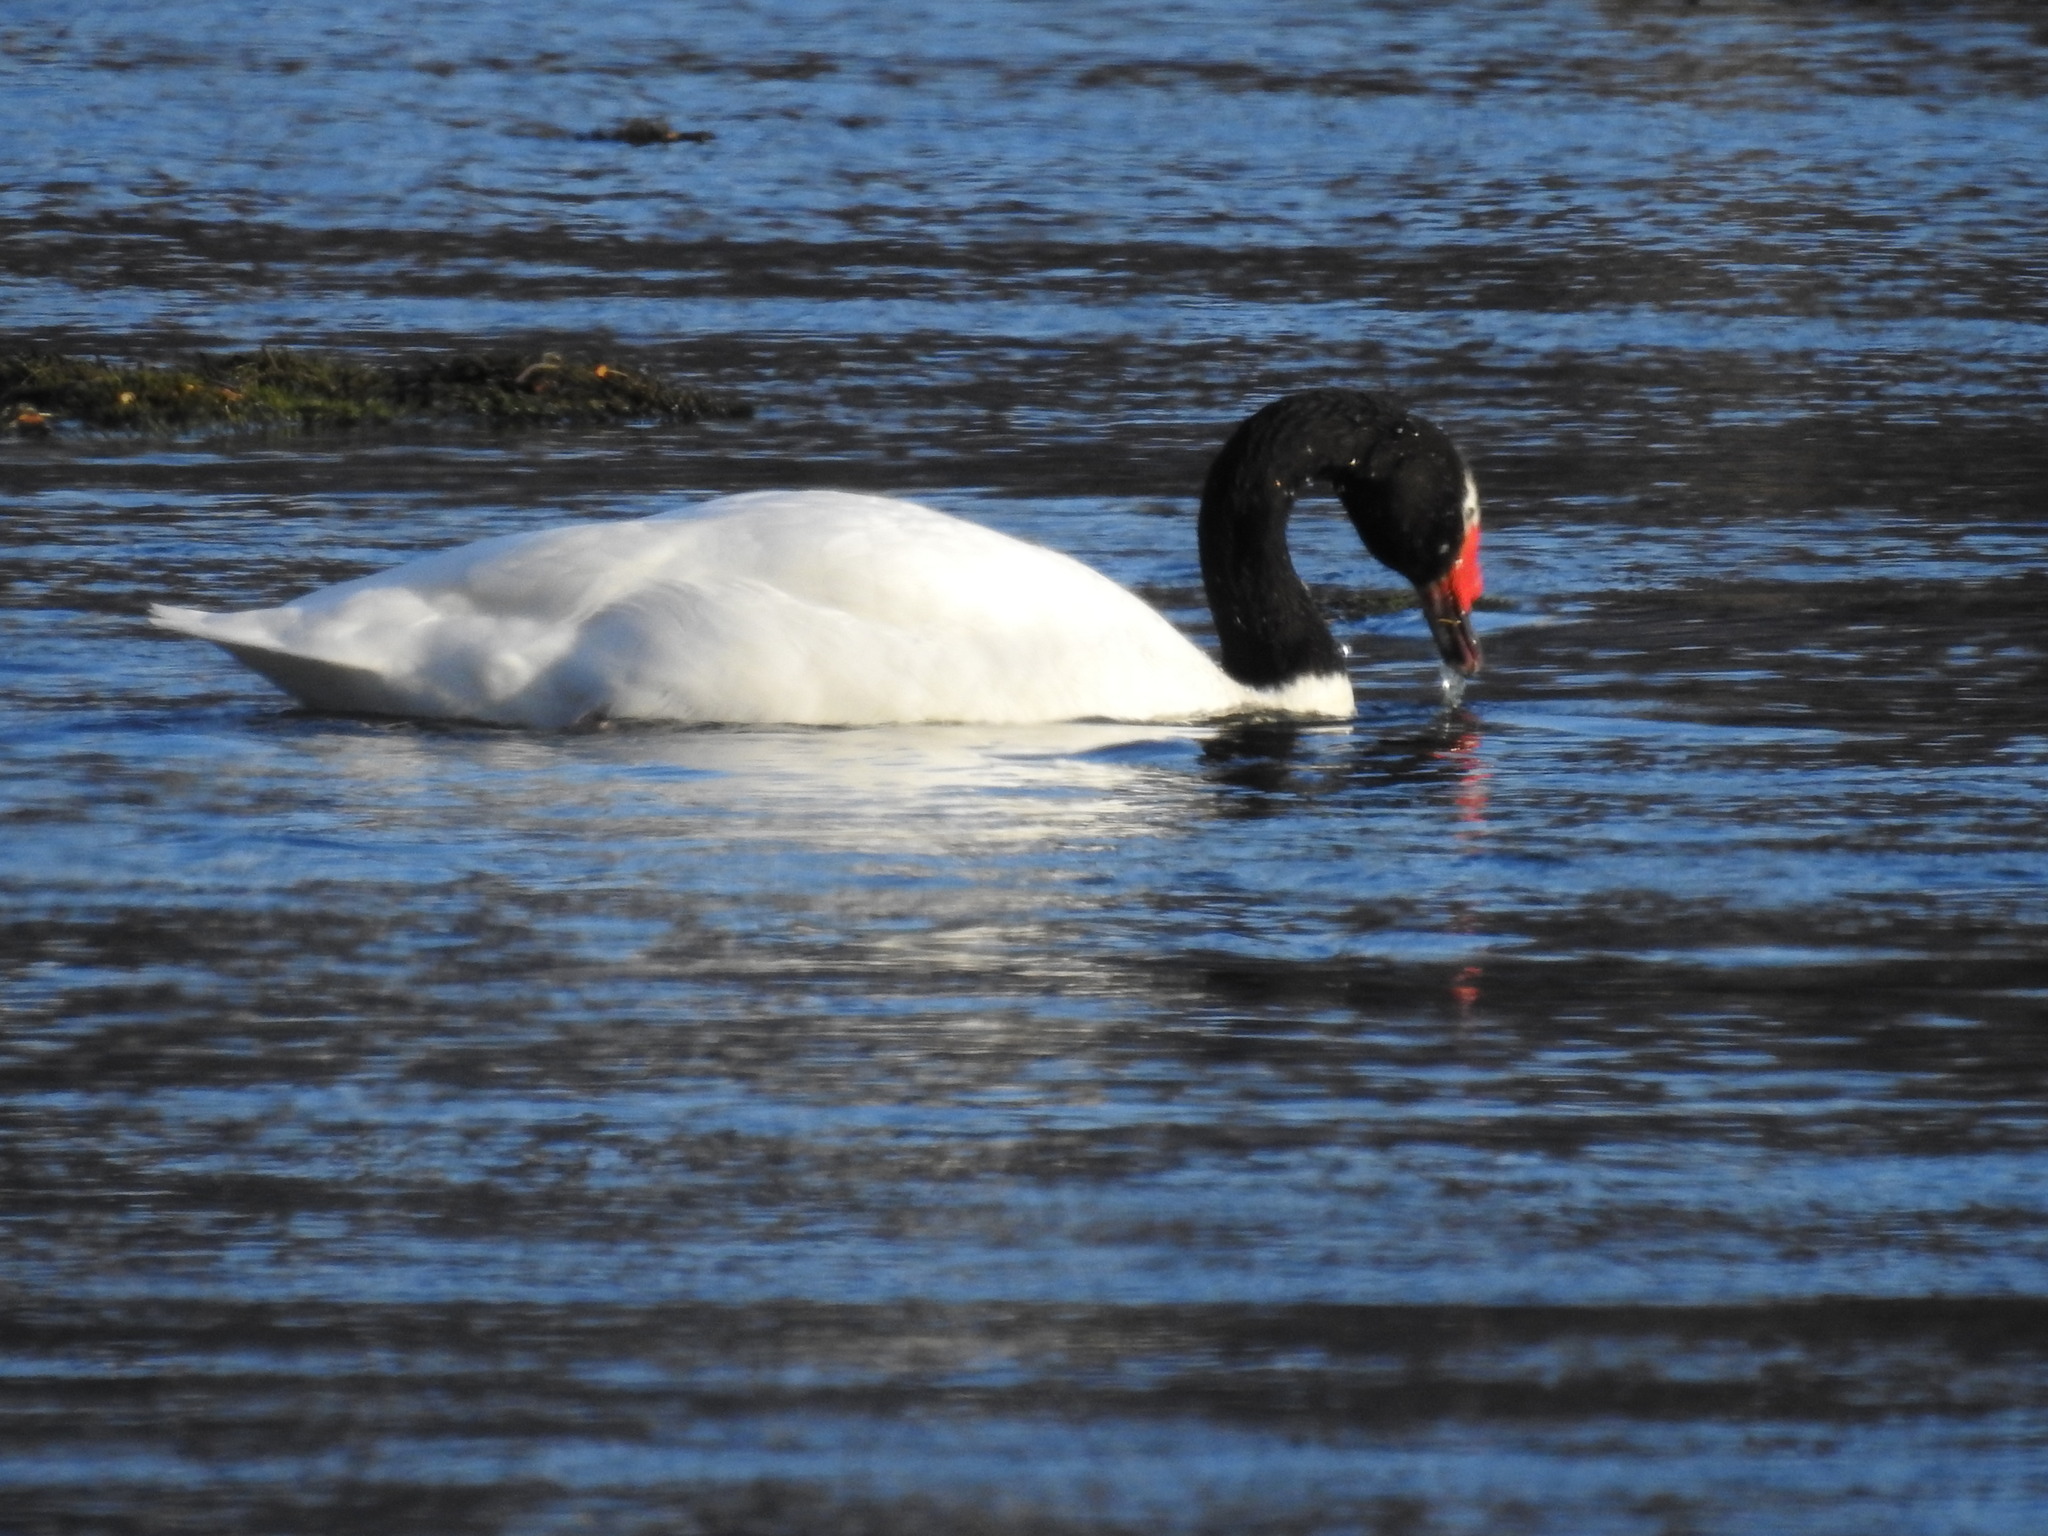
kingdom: Animalia
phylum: Chordata
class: Aves
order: Anseriformes
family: Anatidae
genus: Cygnus
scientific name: Cygnus melancoryphus
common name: Black-necked swan
